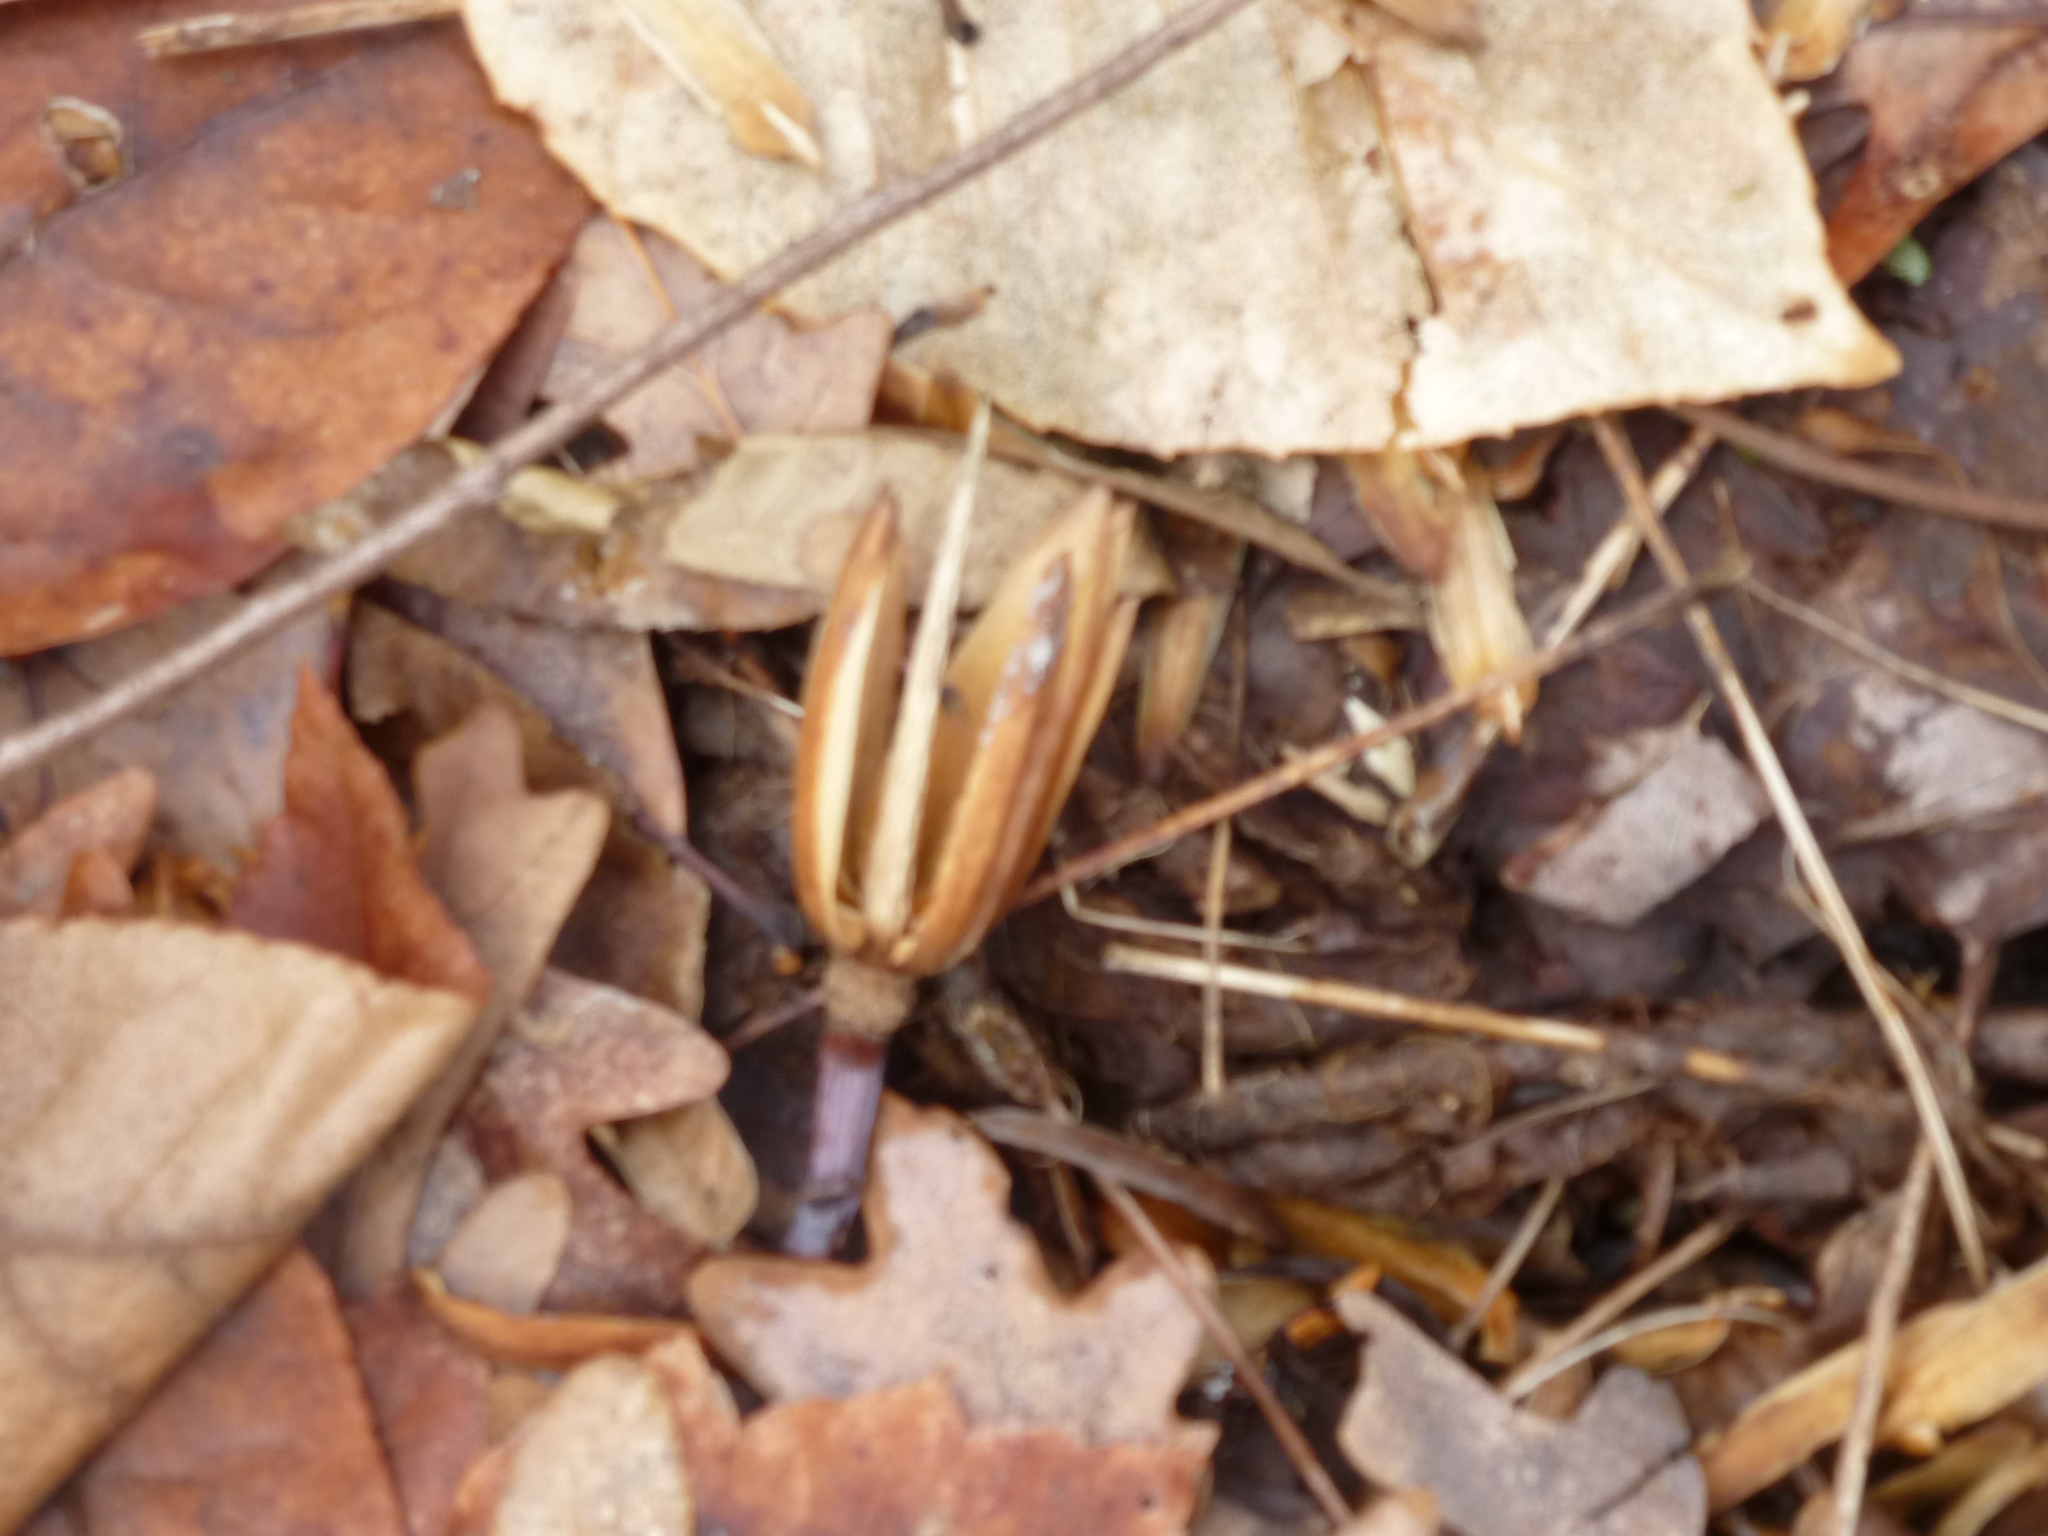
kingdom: Plantae
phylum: Tracheophyta
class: Magnoliopsida
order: Magnoliales
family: Magnoliaceae
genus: Liriodendron
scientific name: Liriodendron tulipifera
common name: Tulip tree
